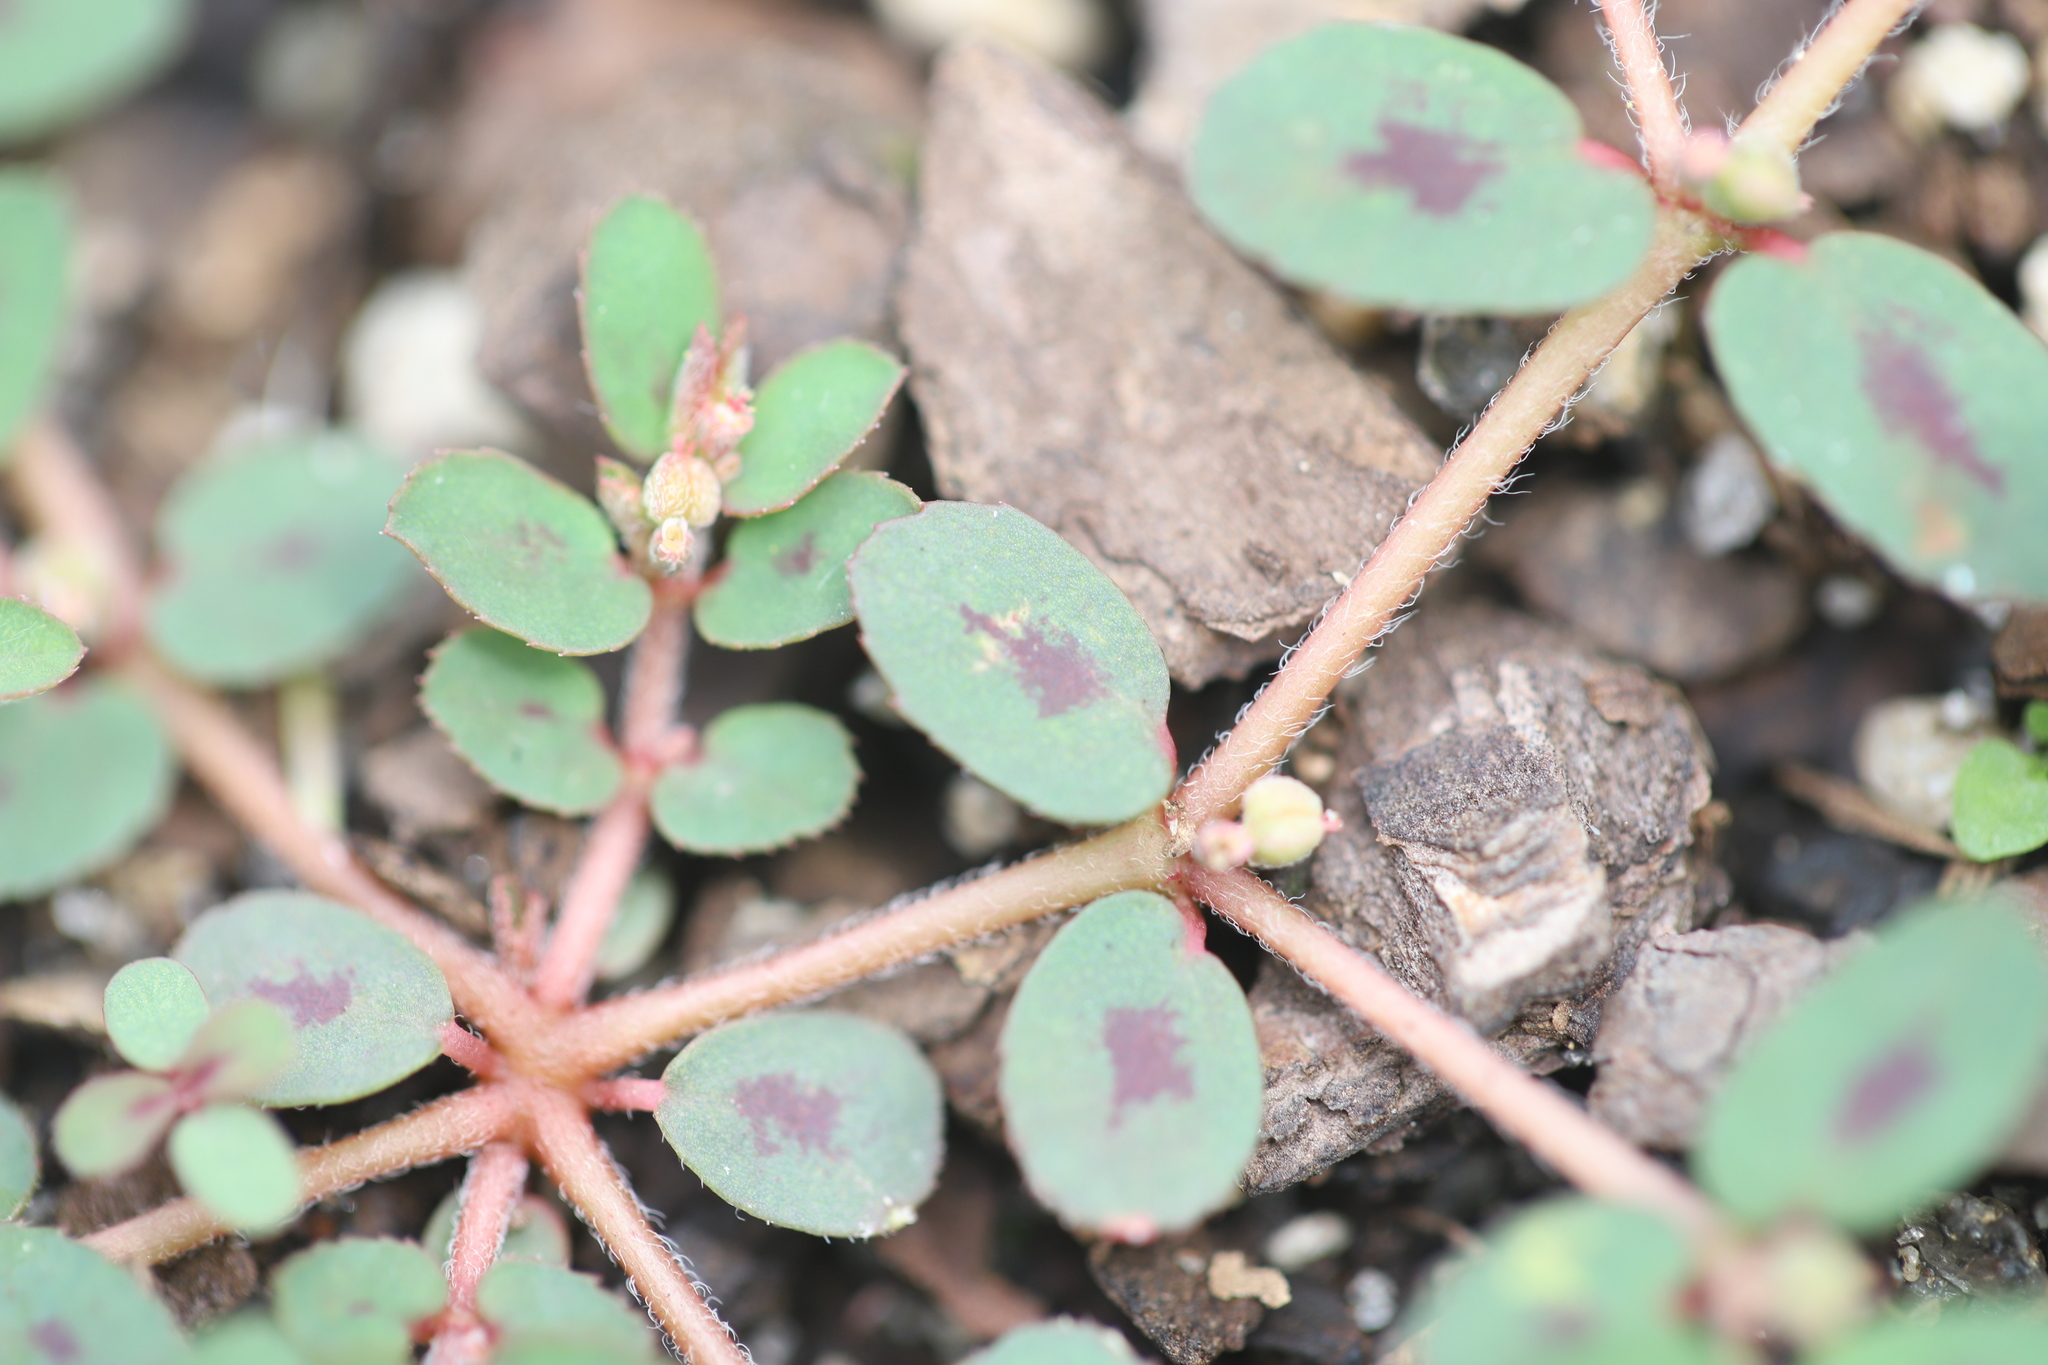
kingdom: Plantae
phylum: Tracheophyta
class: Magnoliopsida
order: Malpighiales
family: Euphorbiaceae
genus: Euphorbia
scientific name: Euphorbia maculata
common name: Spotted spurge
